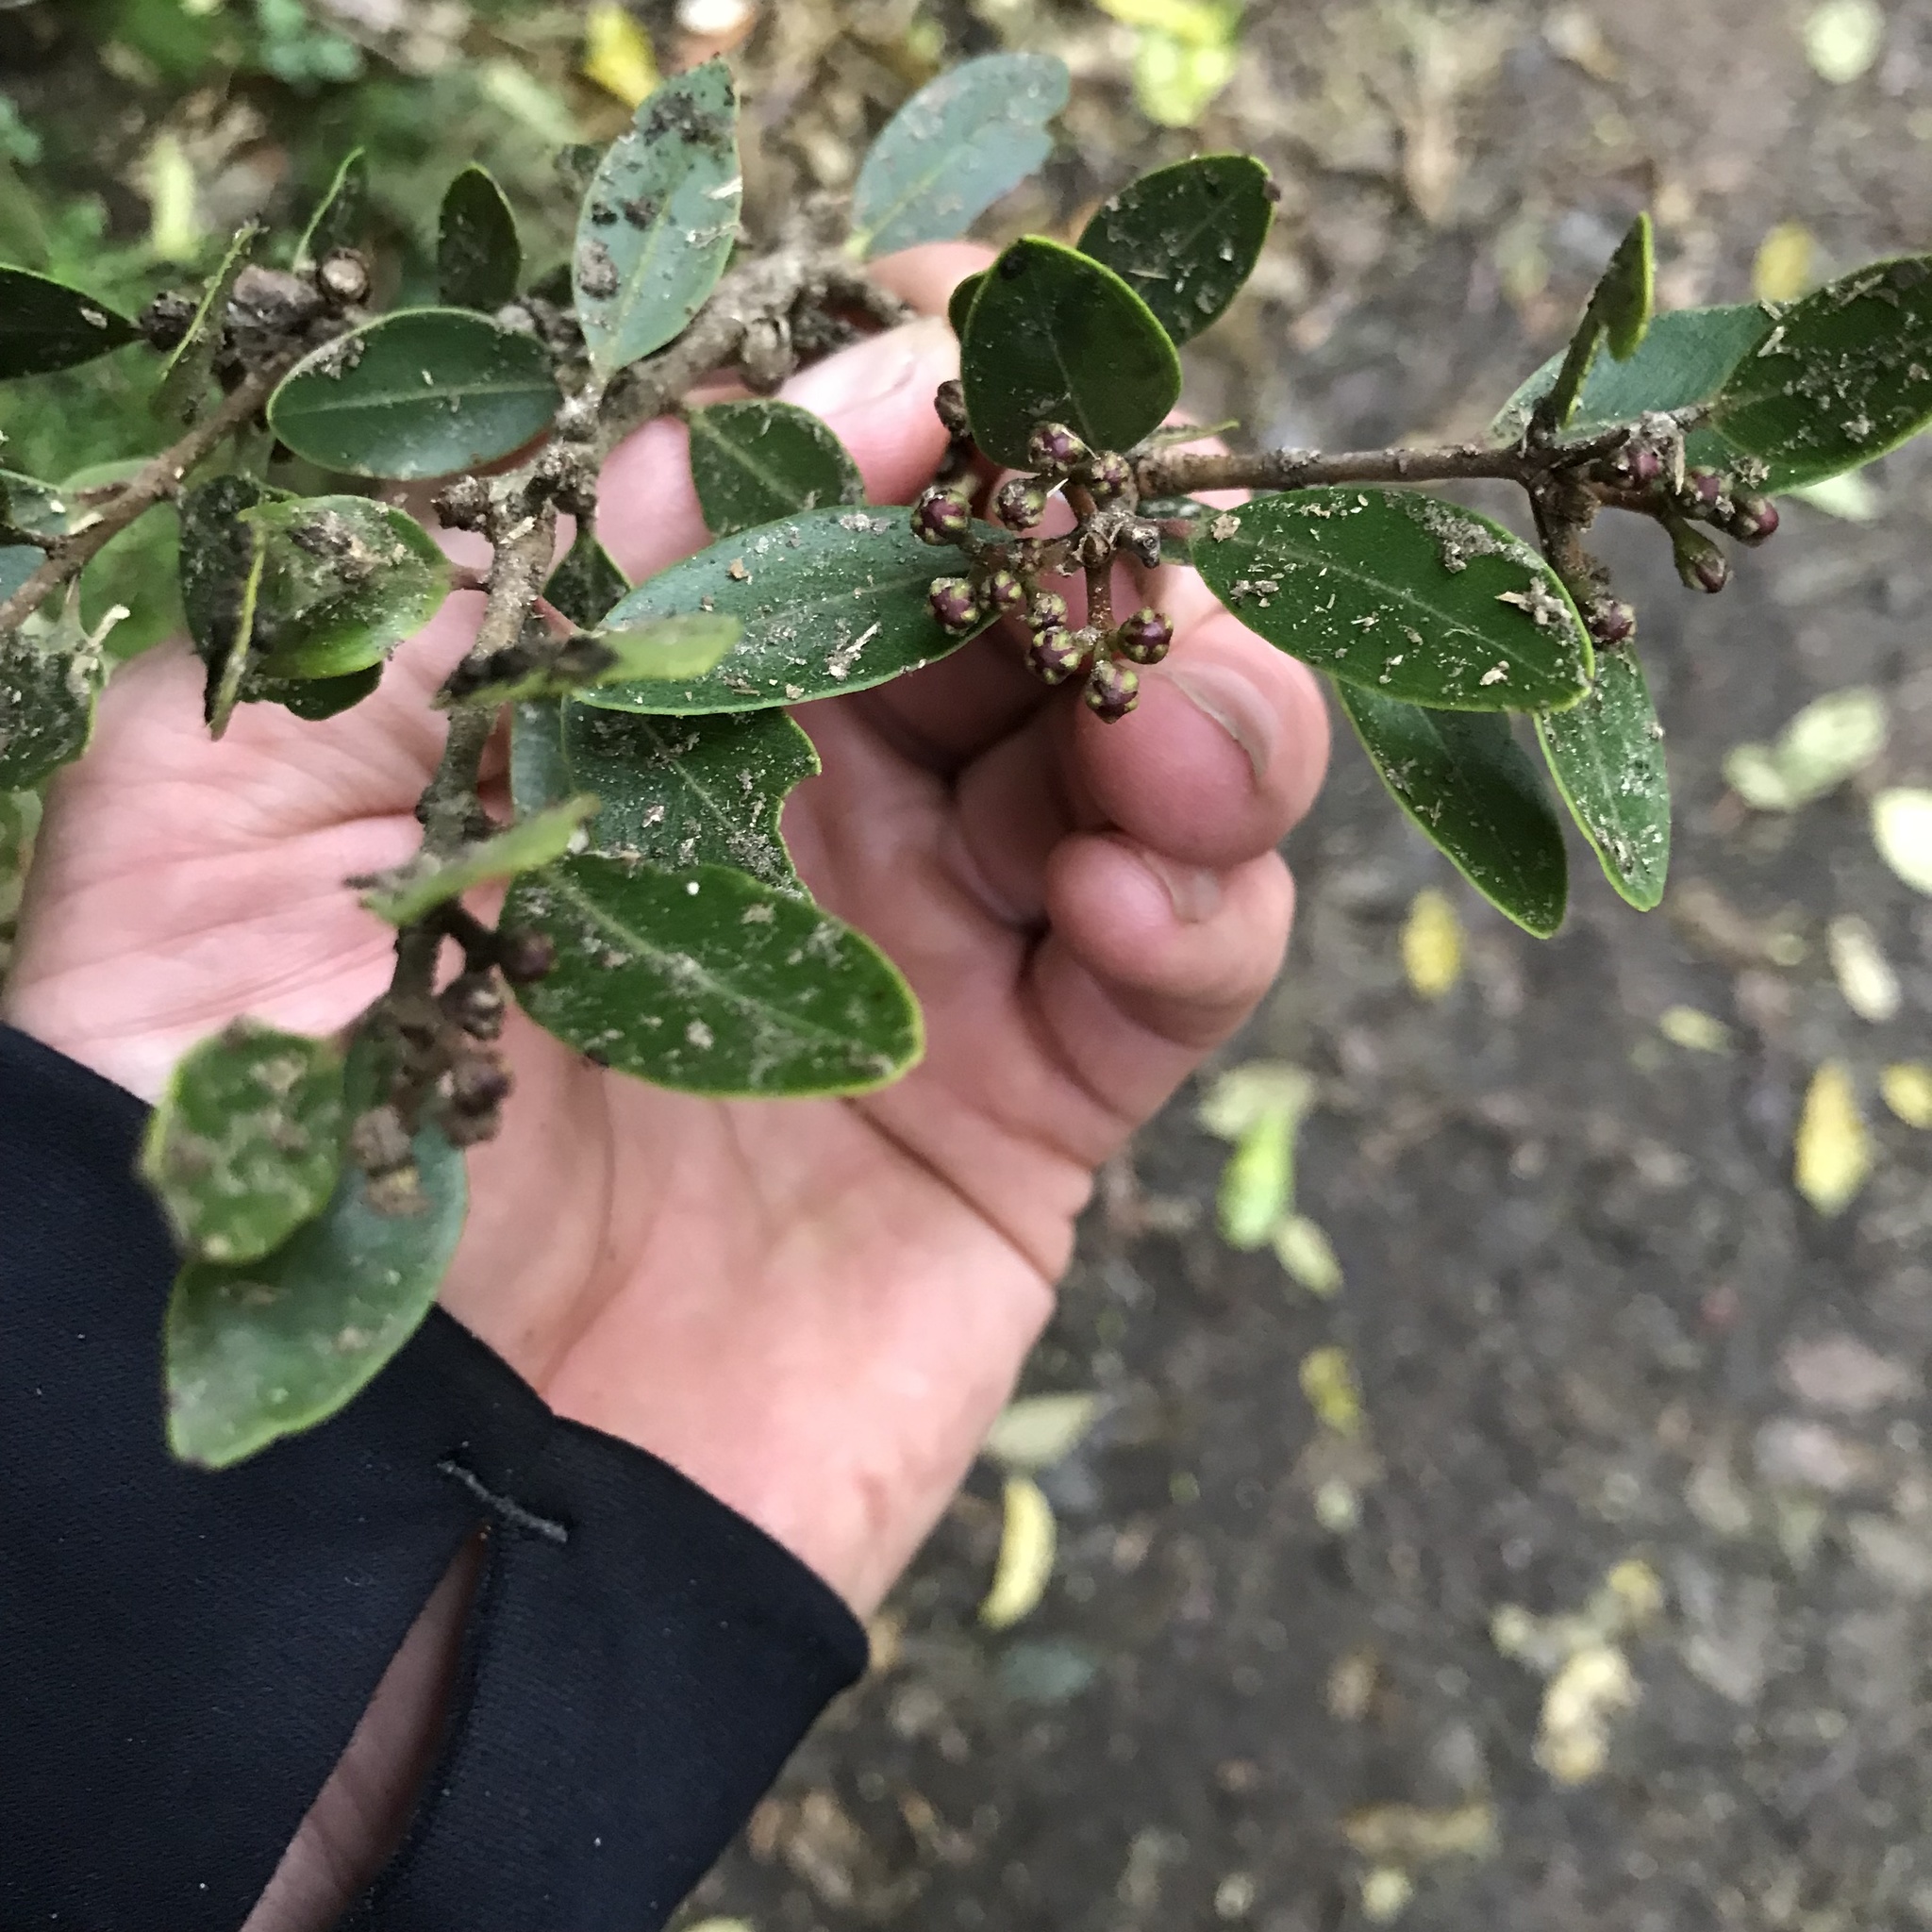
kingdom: Plantae
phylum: Tracheophyta
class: Magnoliopsida
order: Myrtales
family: Myrtaceae
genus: Metrosideros
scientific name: Metrosideros robusta
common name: Northern rata
